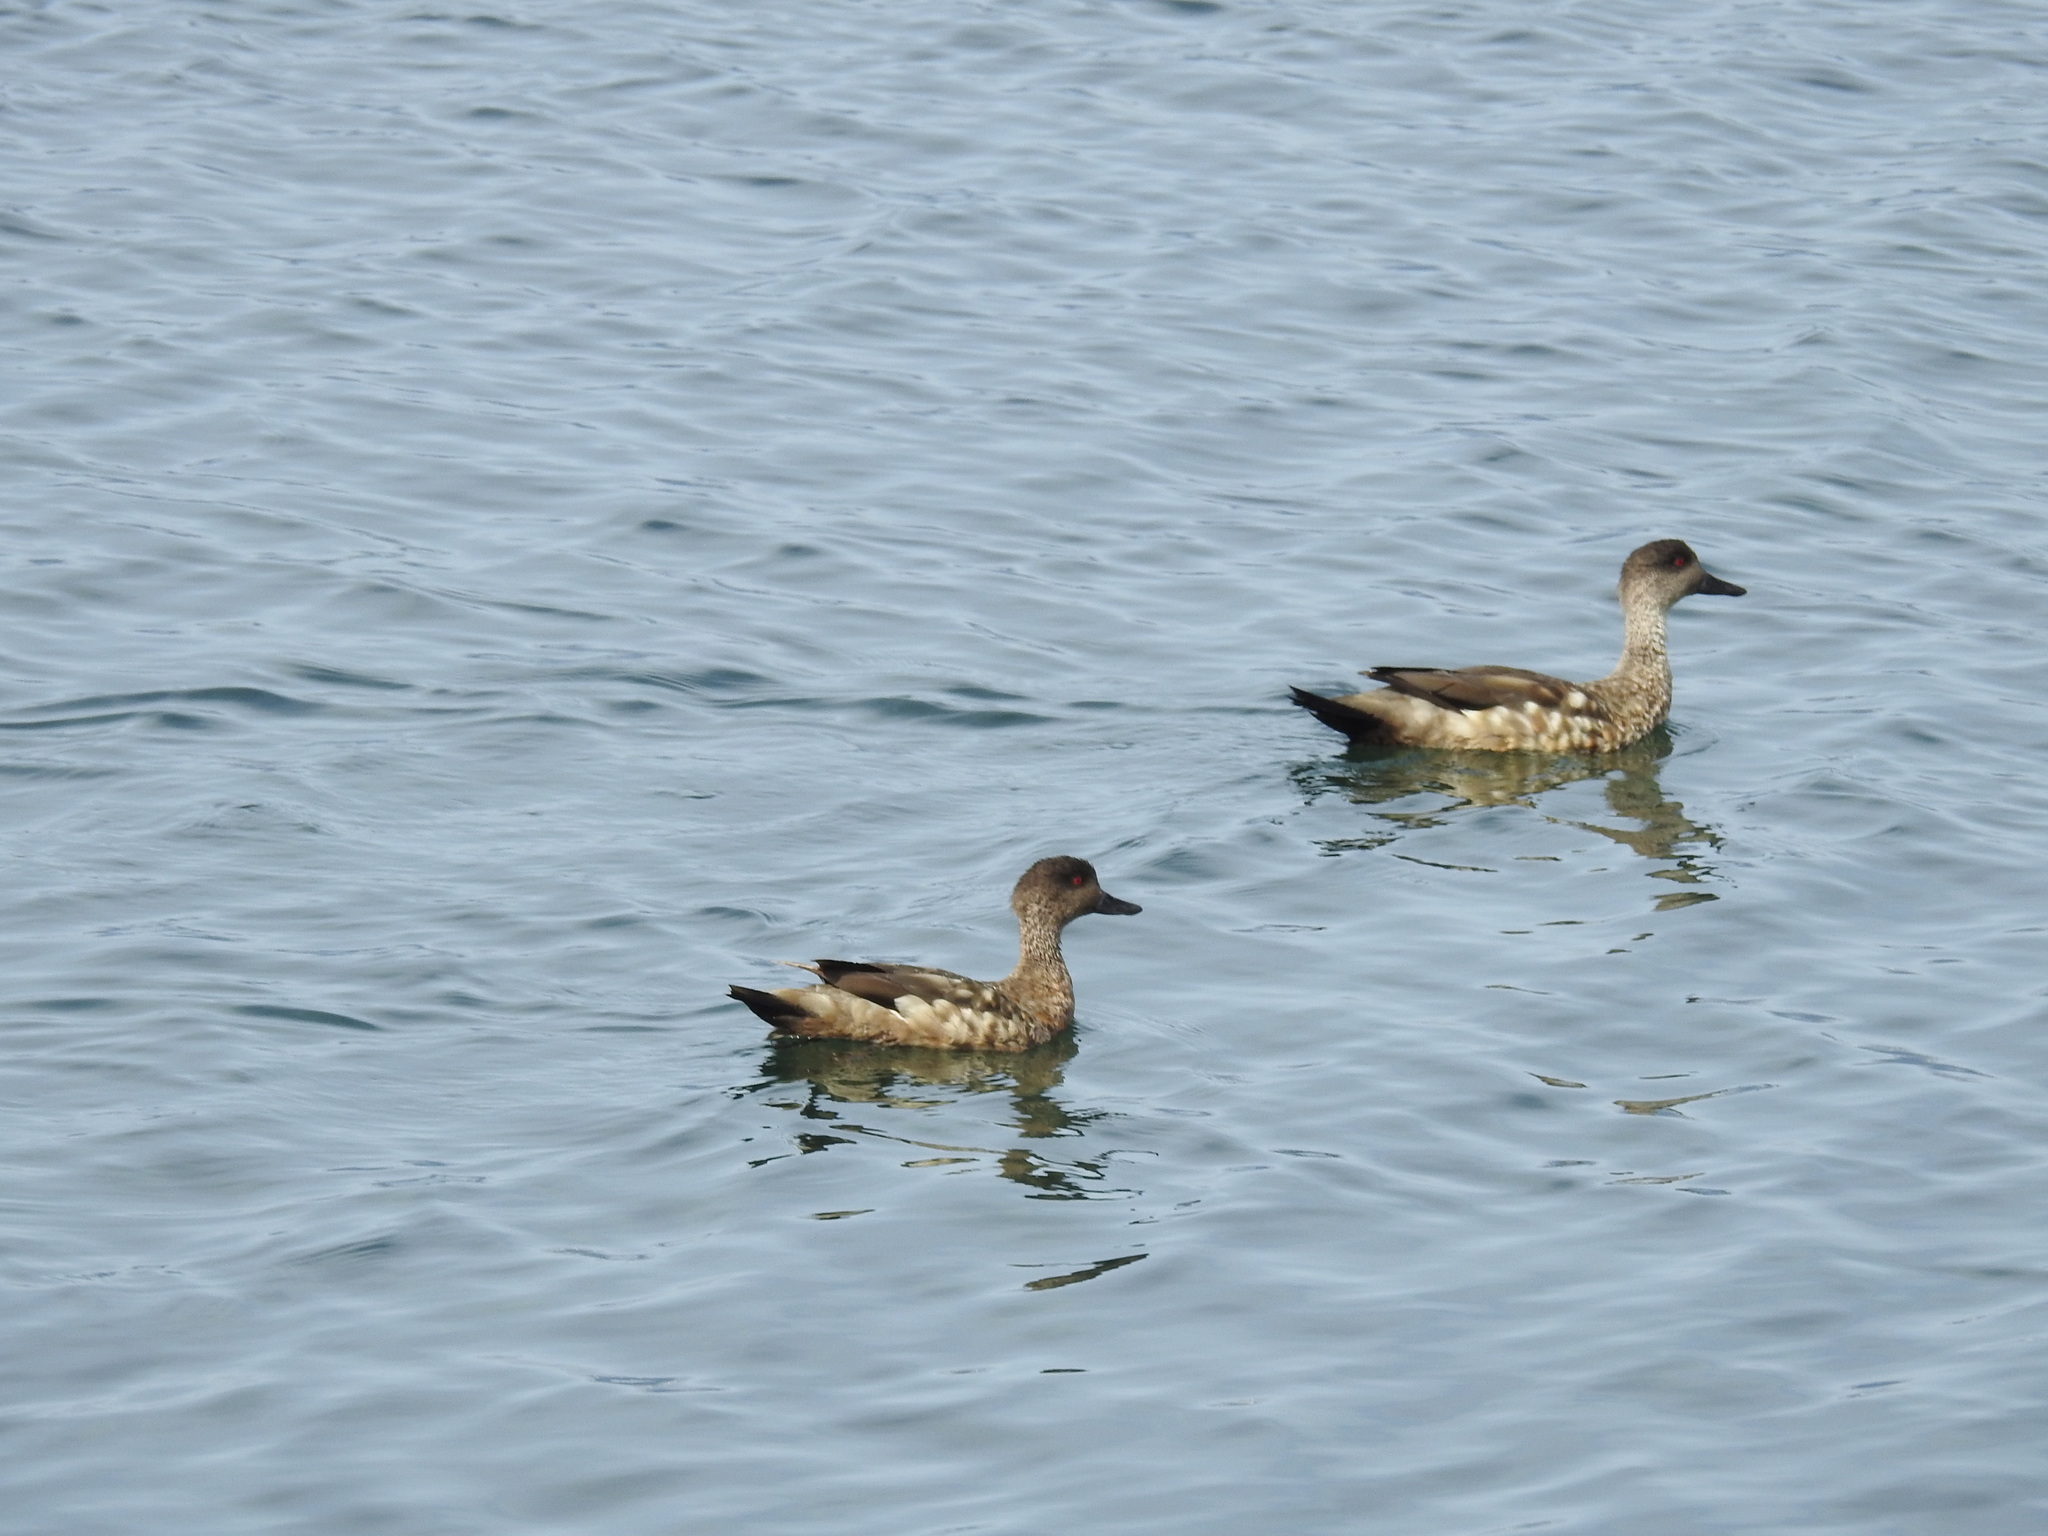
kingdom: Animalia
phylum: Chordata
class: Aves
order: Anseriformes
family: Anatidae
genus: Lophonetta
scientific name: Lophonetta specularioides
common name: Crested duck
